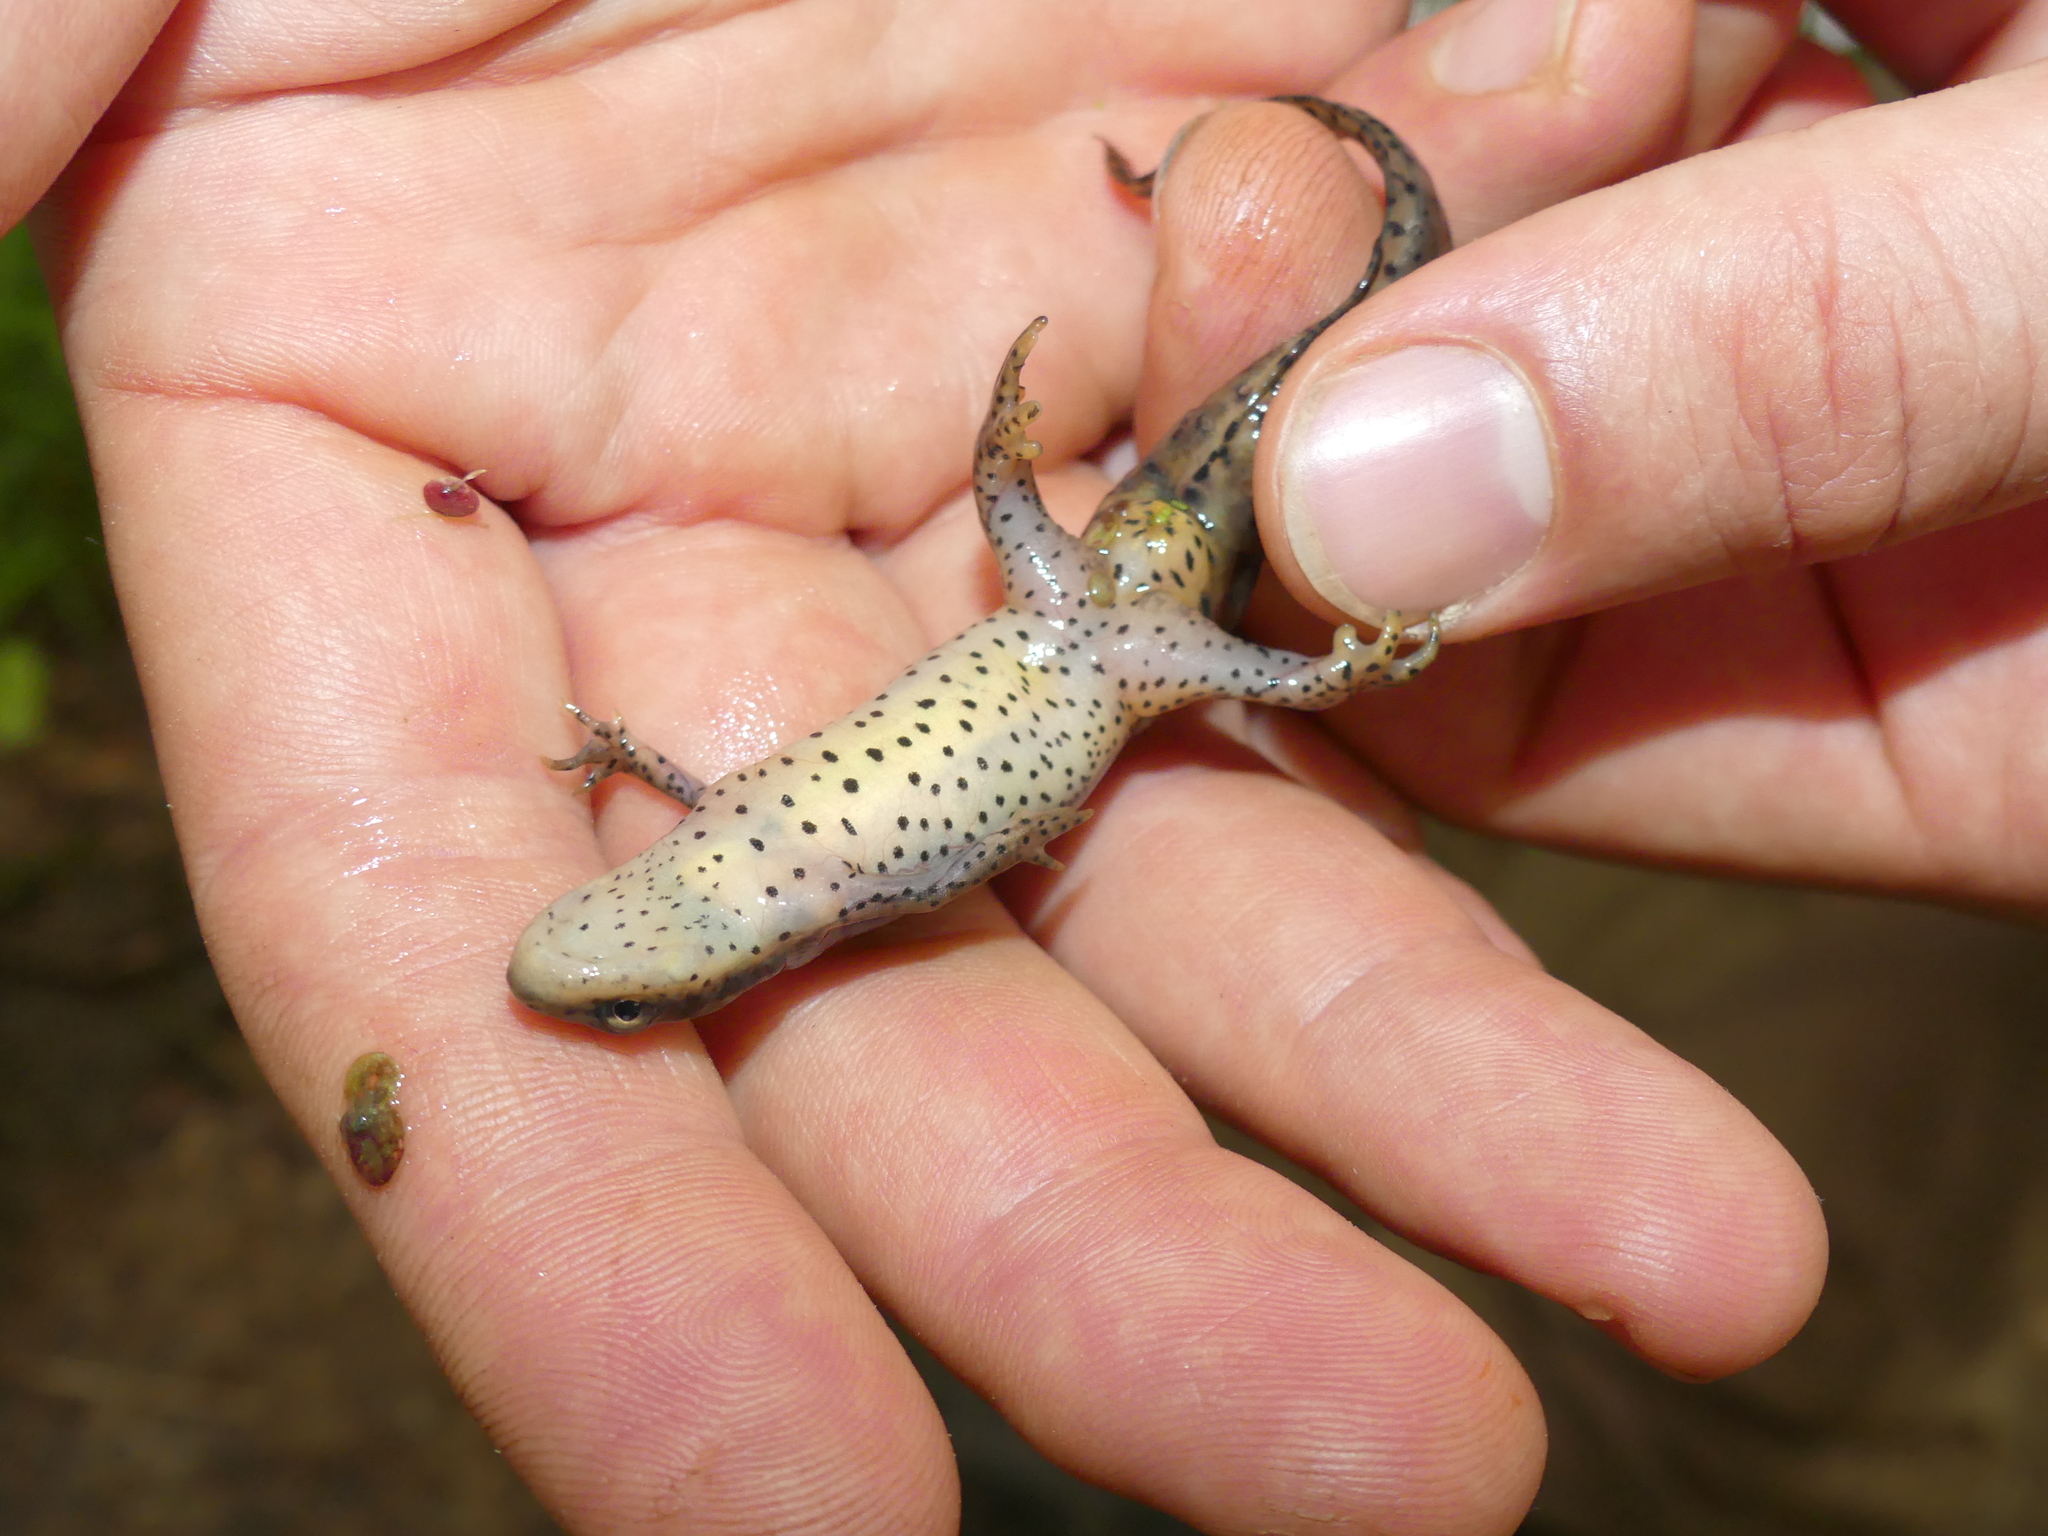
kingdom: Animalia
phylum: Chordata
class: Amphibia
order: Caudata
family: Salamandridae
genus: Notophthalmus
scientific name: Notophthalmus viridescens
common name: Eastern newt
